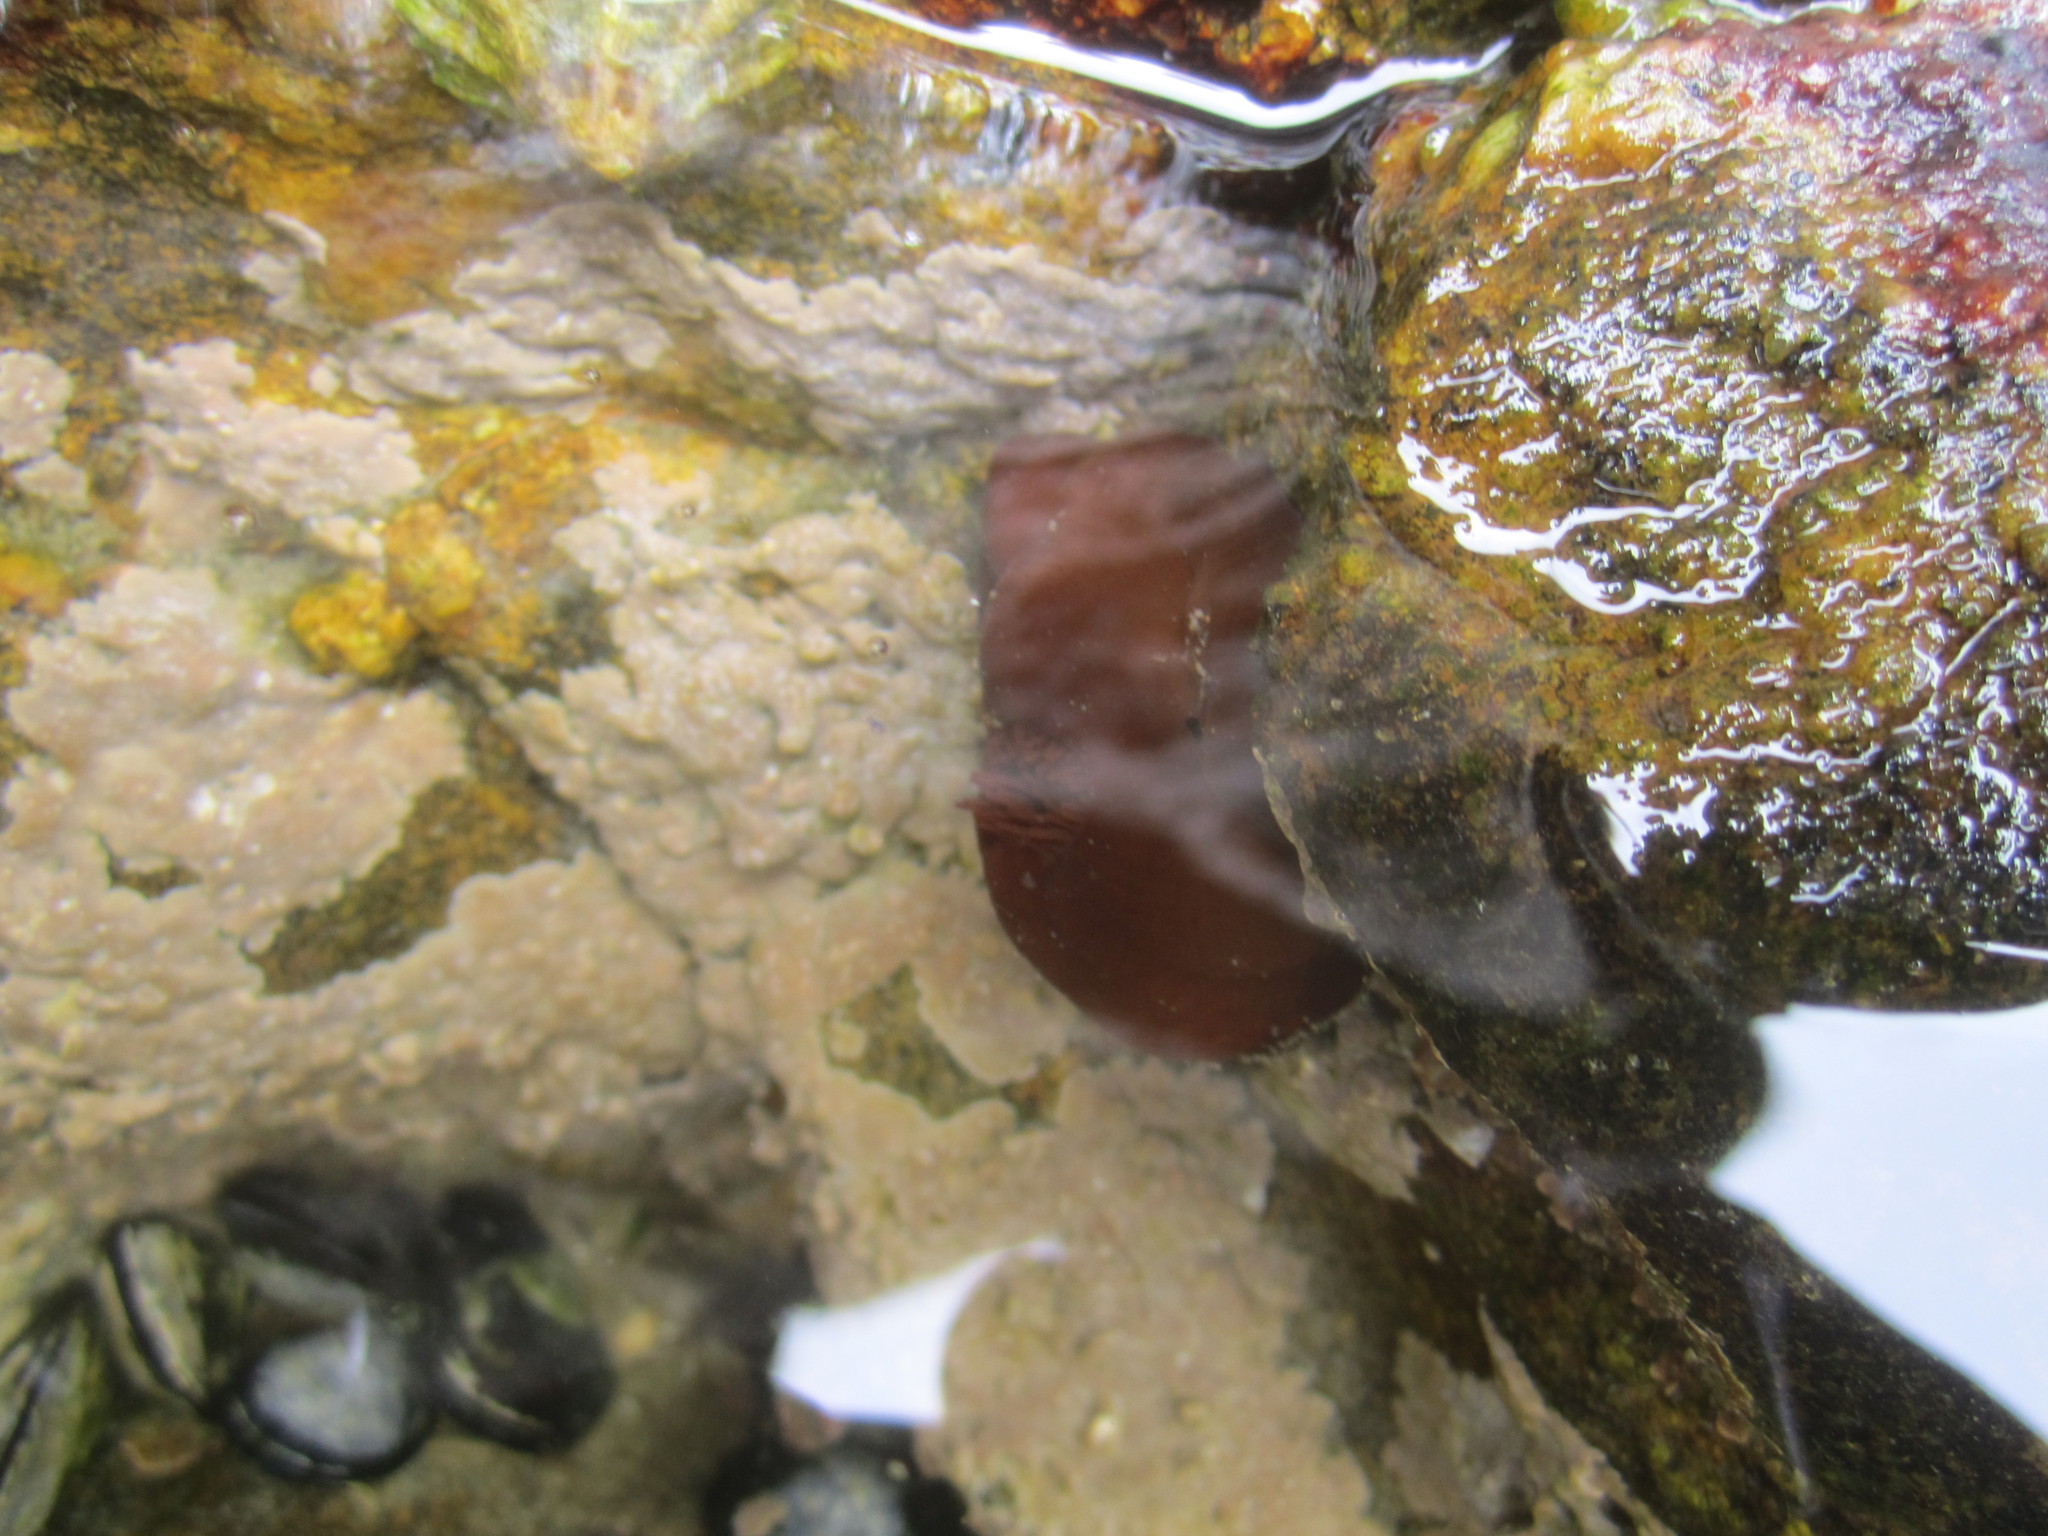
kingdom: Animalia
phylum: Cnidaria
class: Anthozoa
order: Actiniaria
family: Actiniidae
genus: Actinia
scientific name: Actinia equina
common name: Beadlet anemone
